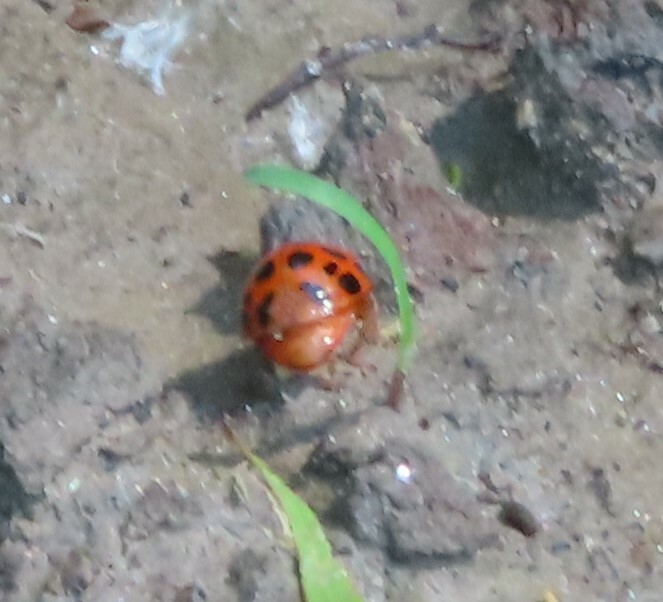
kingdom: Animalia
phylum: Arthropoda
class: Insecta
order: Coleoptera
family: Coccinellidae
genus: Harmonia
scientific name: Harmonia axyridis
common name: Harlequin ladybird
